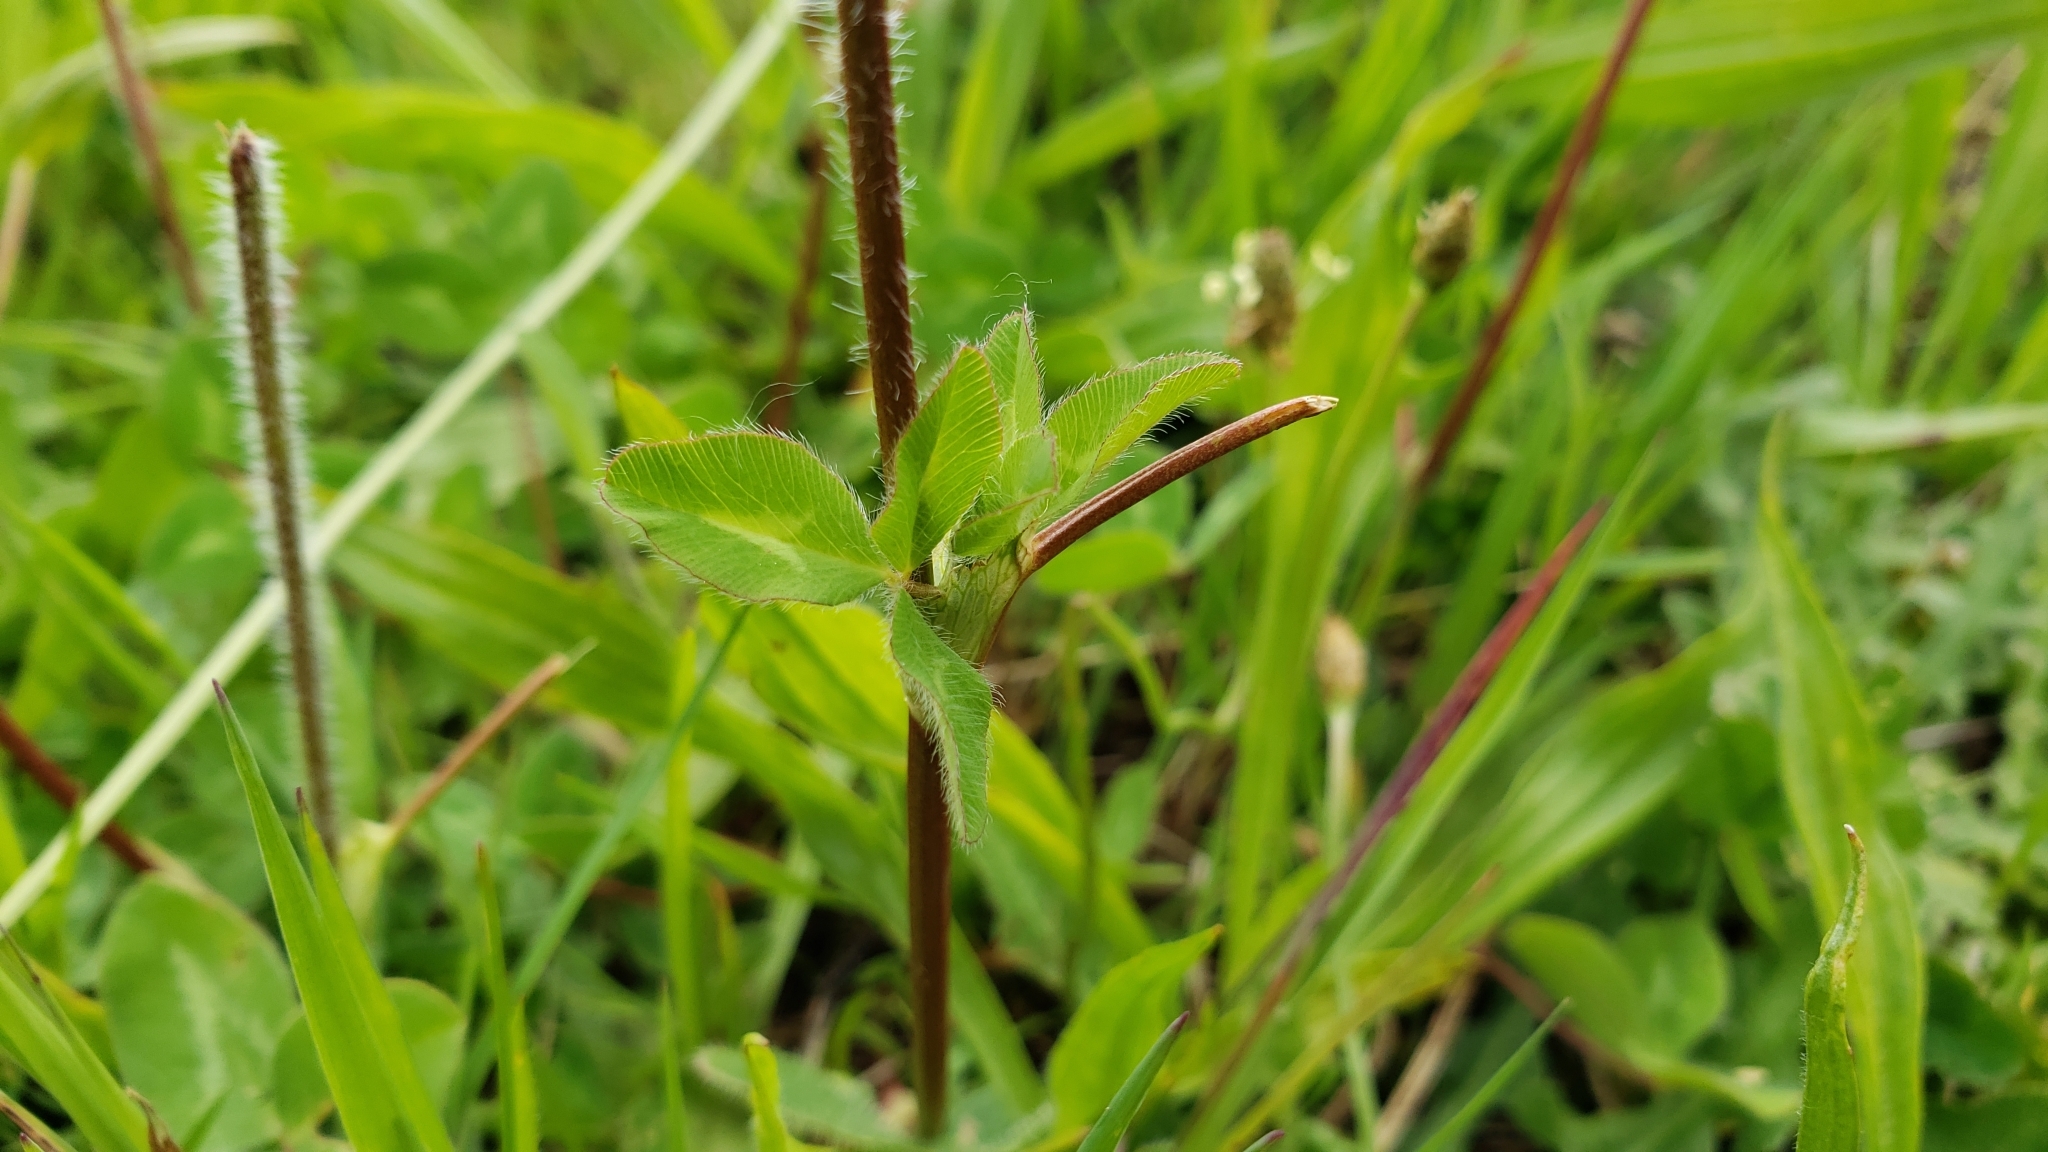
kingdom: Plantae
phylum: Tracheophyta
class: Magnoliopsida
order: Fabales
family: Fabaceae
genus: Trifolium
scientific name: Trifolium pratense
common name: Red clover
